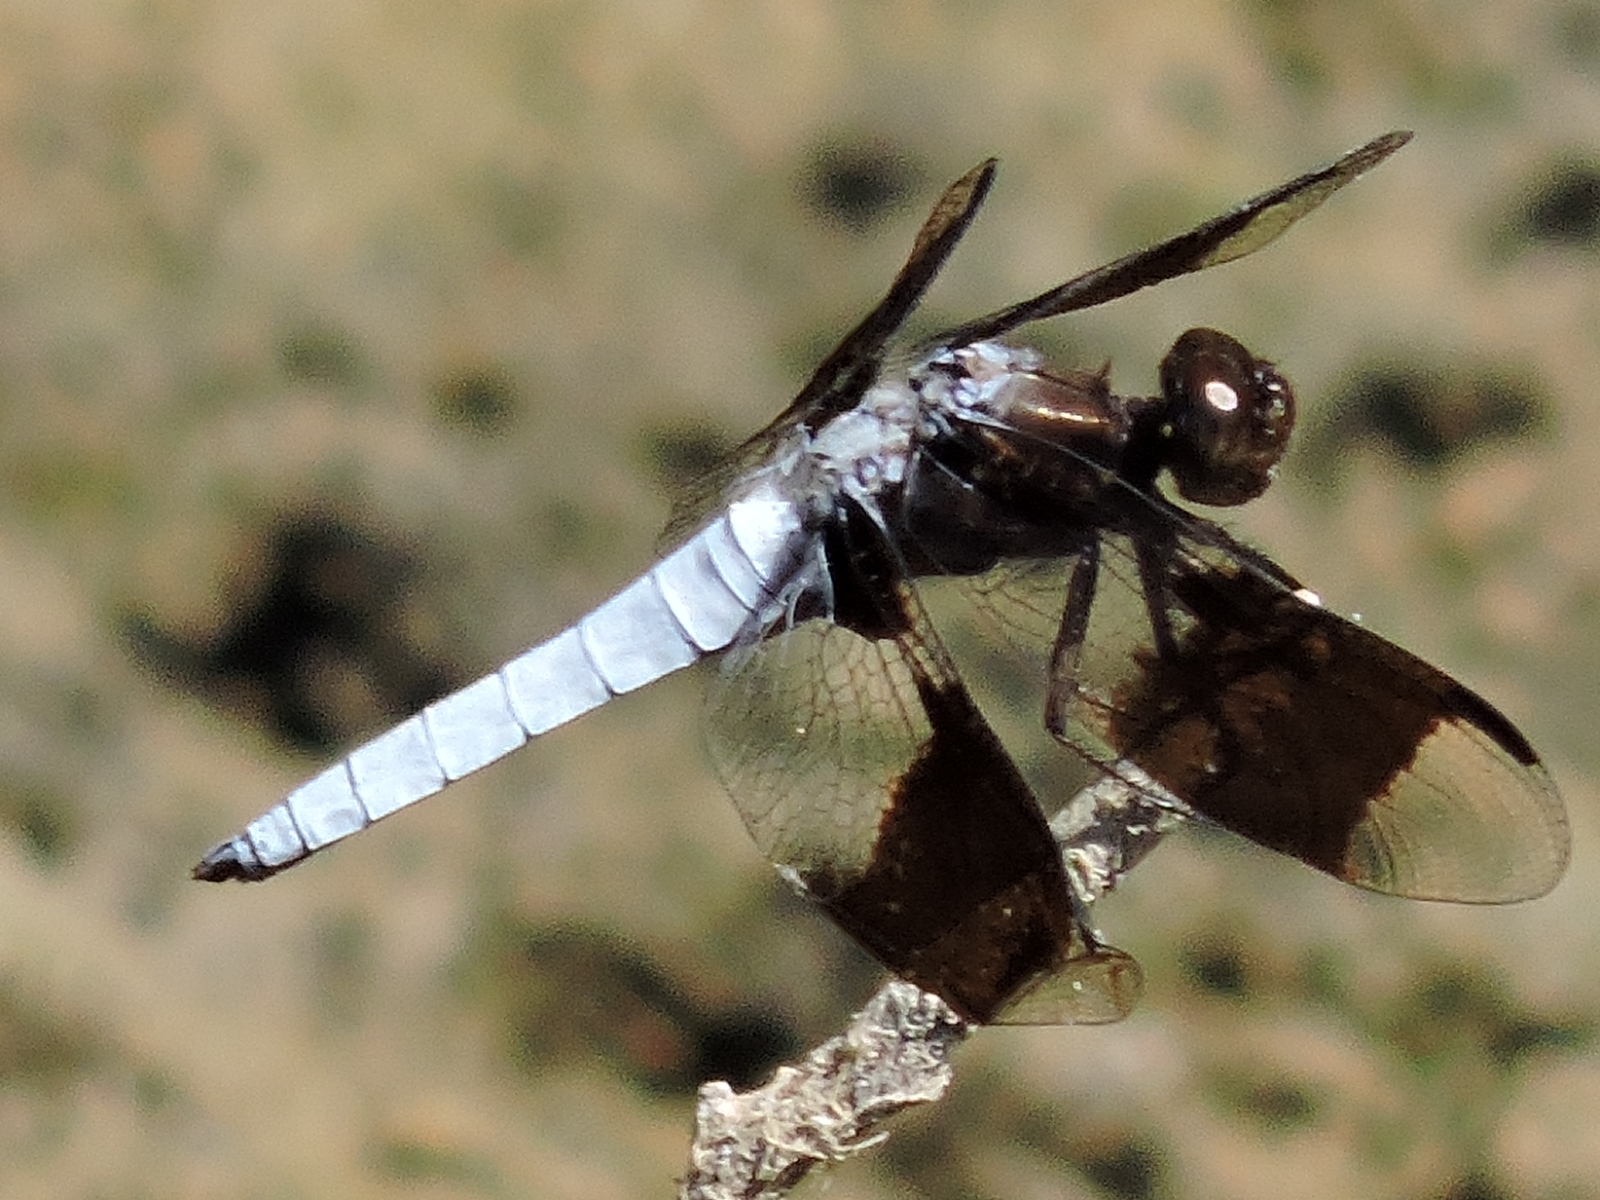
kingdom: Animalia
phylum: Arthropoda
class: Insecta
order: Odonata
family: Libellulidae
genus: Plathemis
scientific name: Plathemis lydia
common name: Common whitetail
